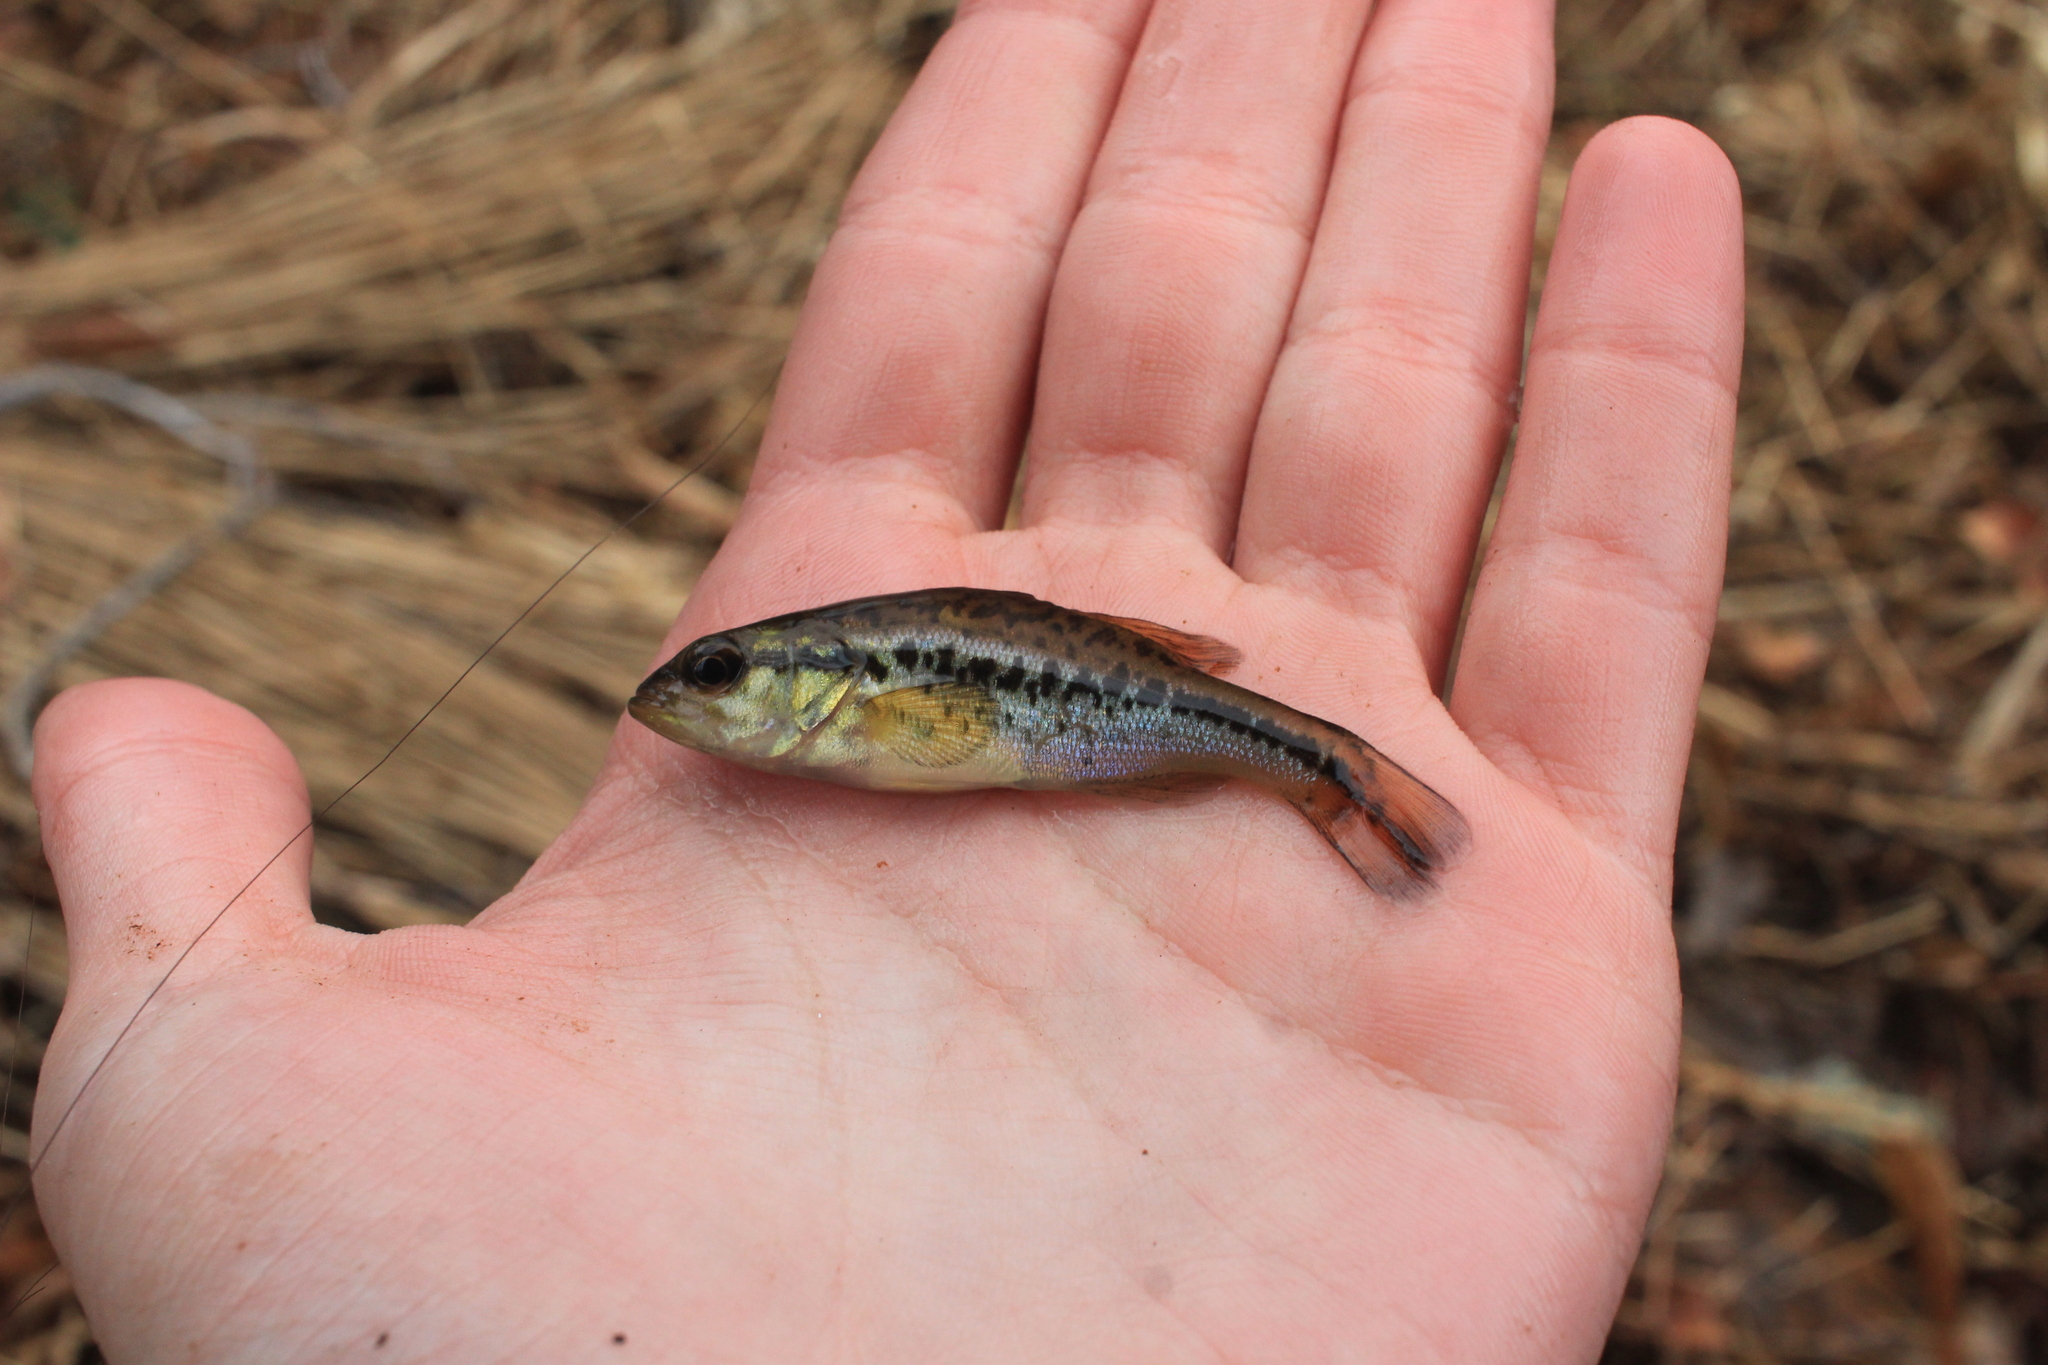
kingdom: Animalia
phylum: Chordata
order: Perciformes
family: Centrarchidae
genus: Micropterus
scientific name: Micropterus
